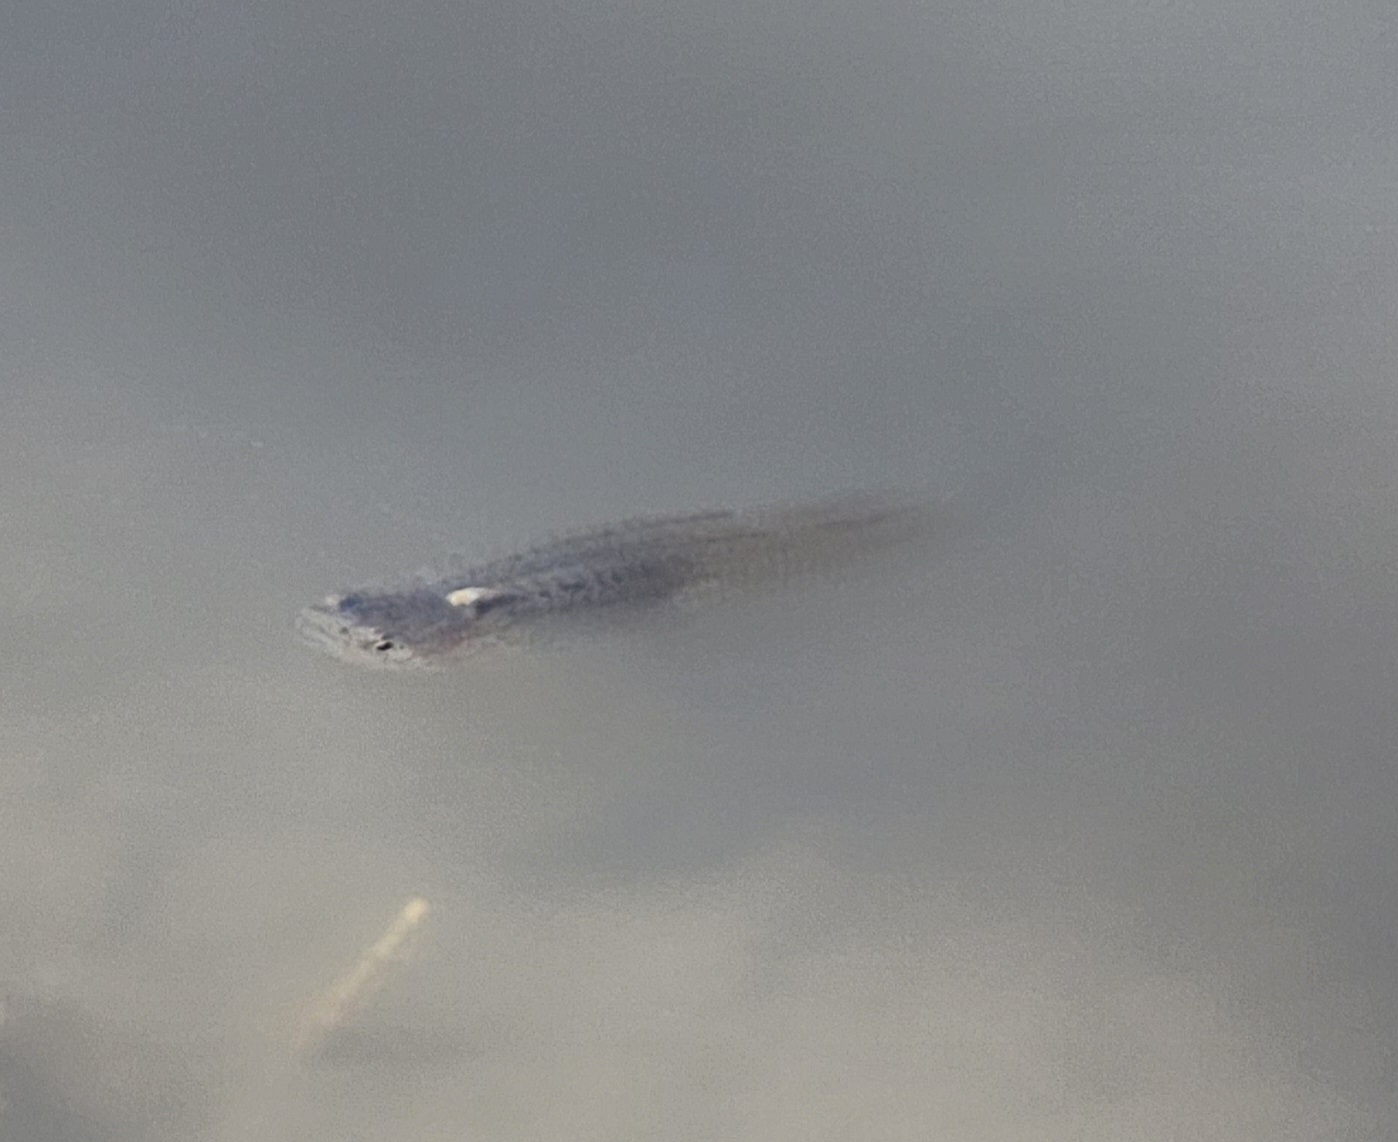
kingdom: Animalia
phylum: Chordata
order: Cyprinodontiformes
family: Poeciliidae
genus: Gambusia
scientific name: Gambusia affinis
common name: Mosquitofish
